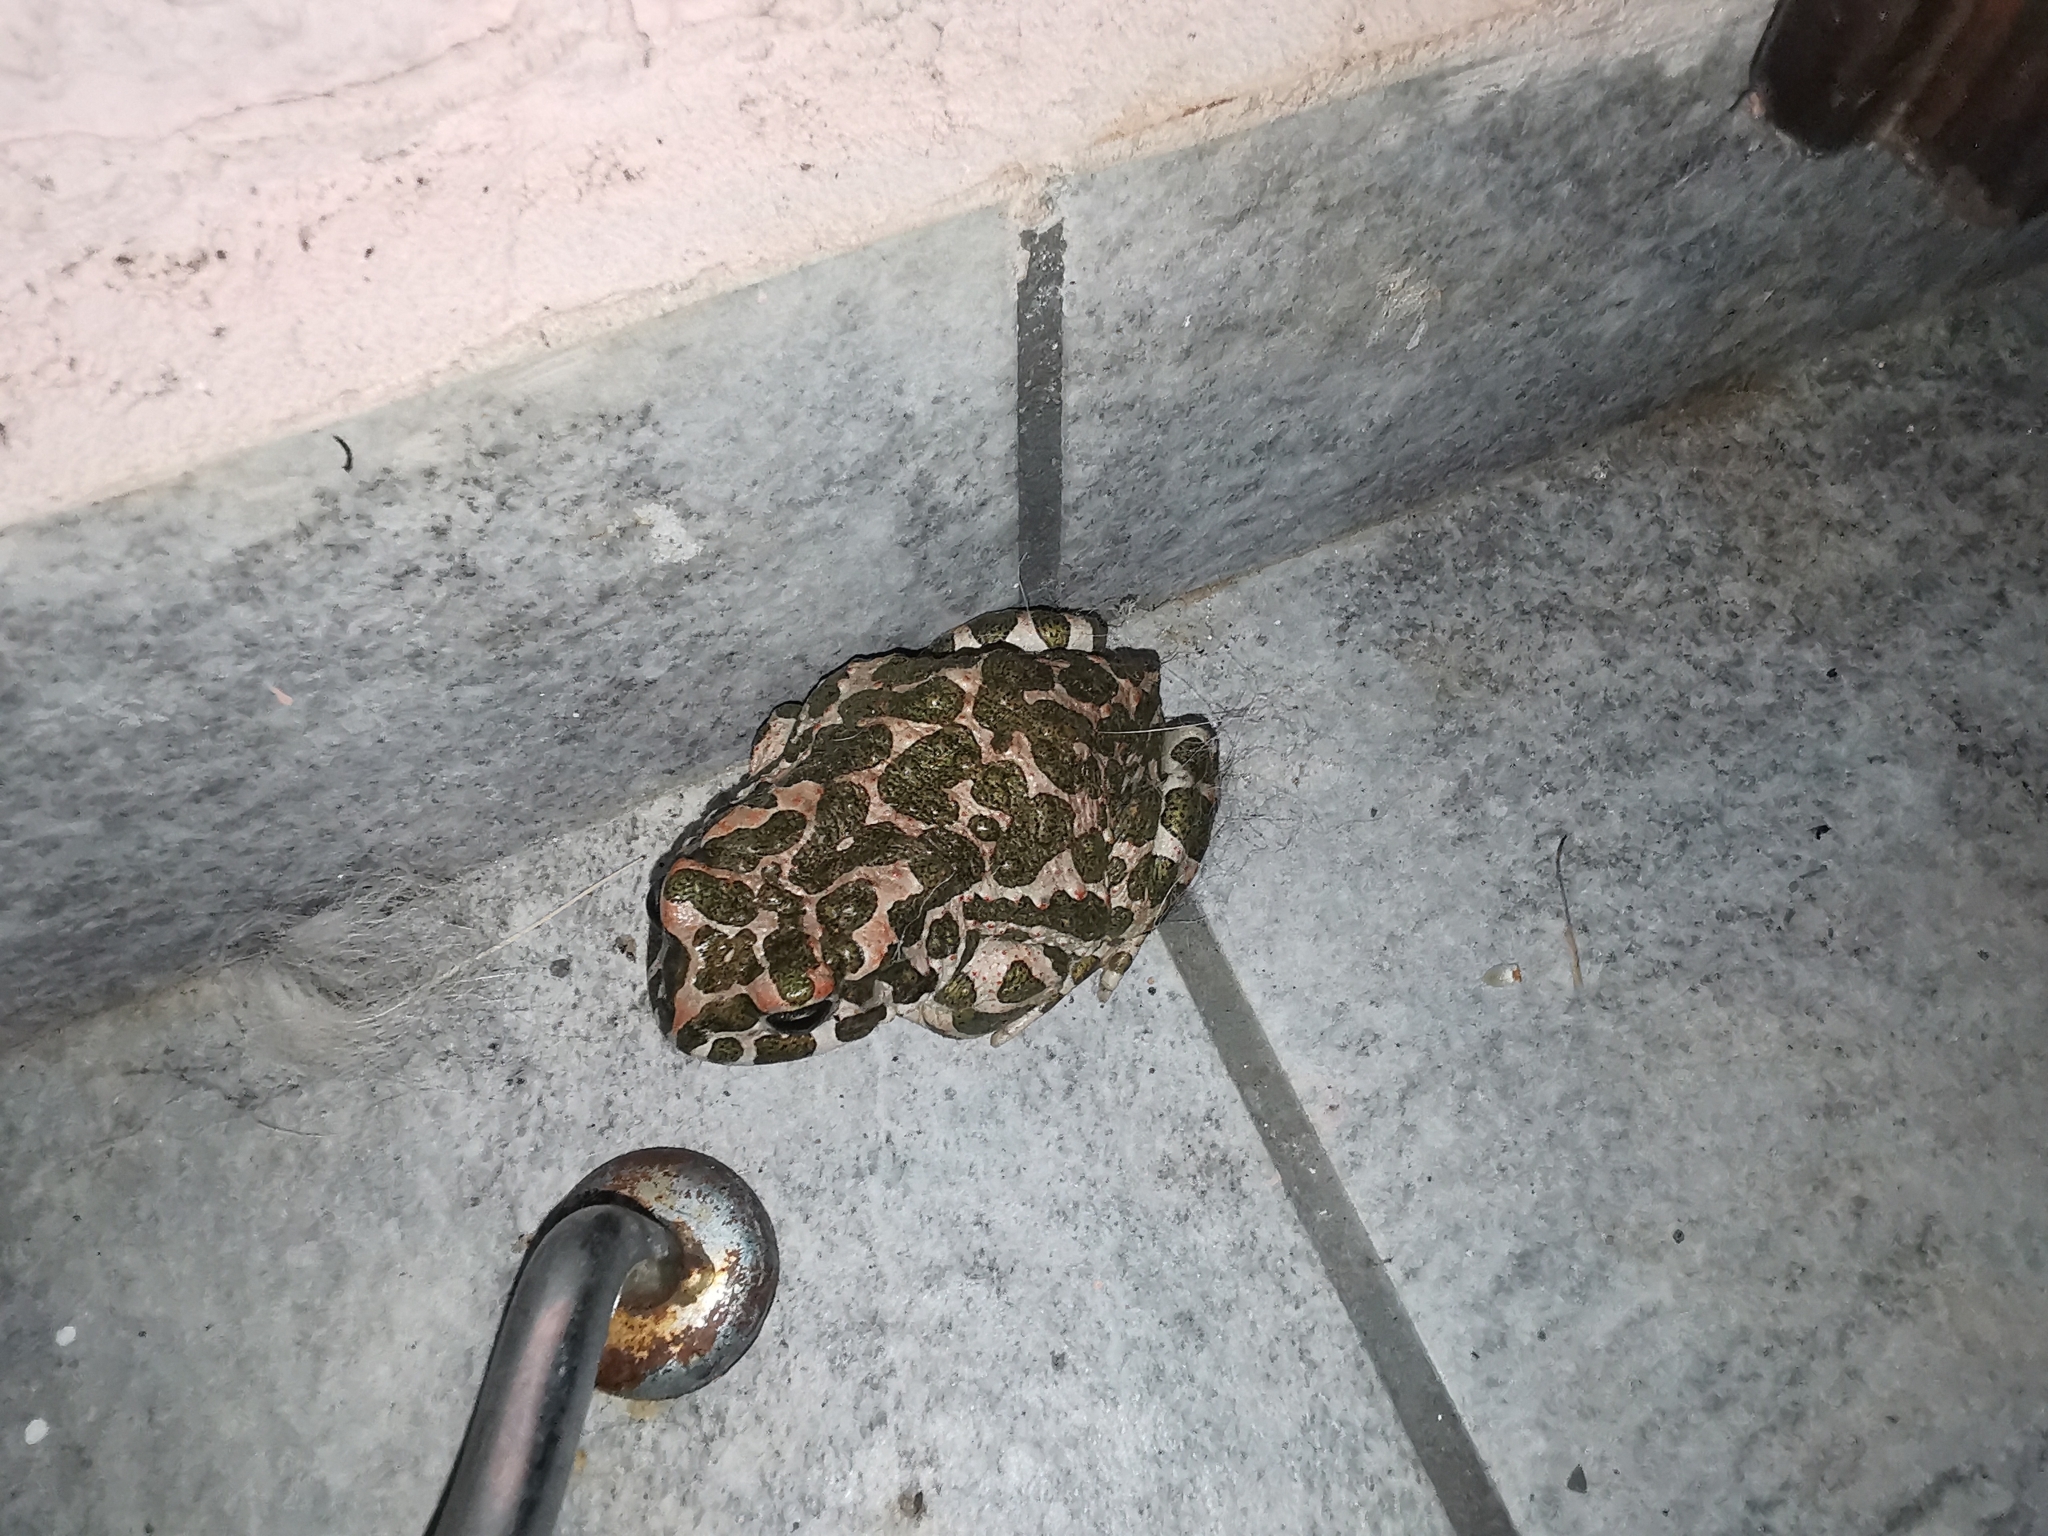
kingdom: Animalia
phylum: Chordata
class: Amphibia
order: Anura
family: Bufonidae
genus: Bufotes
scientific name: Bufotes viridis
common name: European green toad
